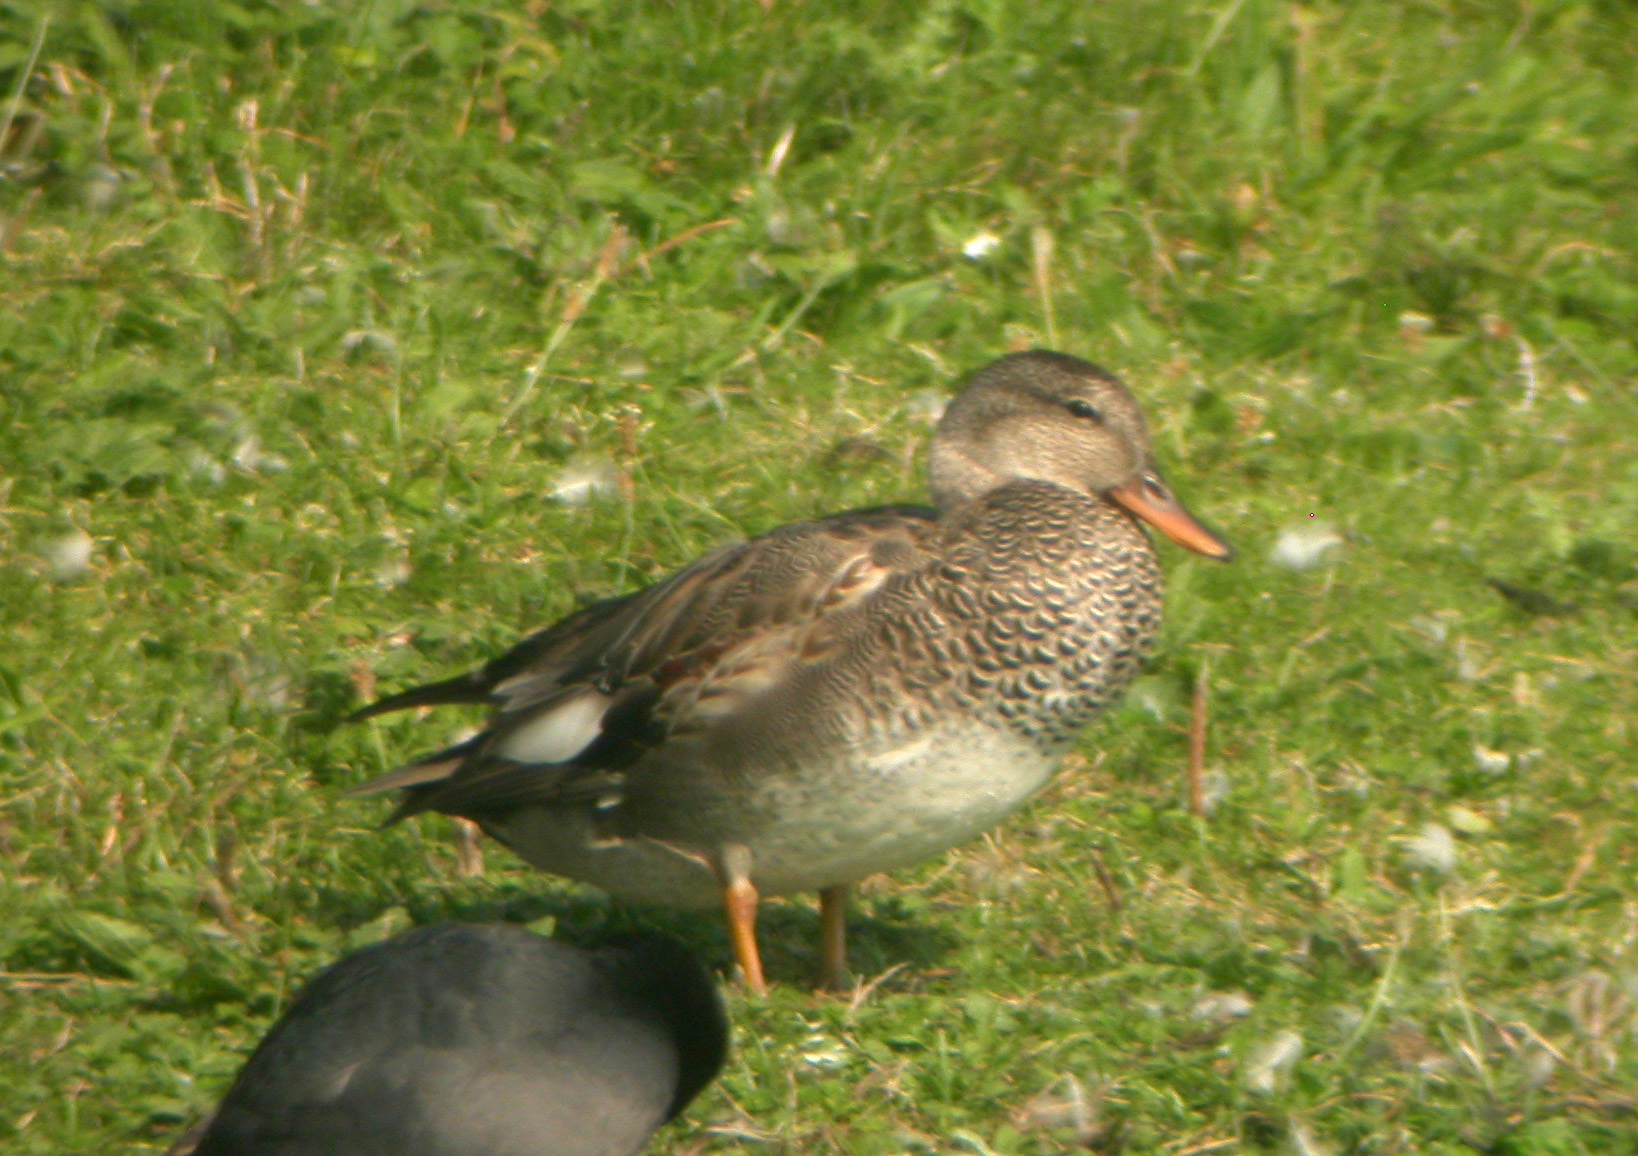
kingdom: Animalia
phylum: Chordata
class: Aves
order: Anseriformes
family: Anatidae
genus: Mareca
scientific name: Mareca strepera
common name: Gadwall
